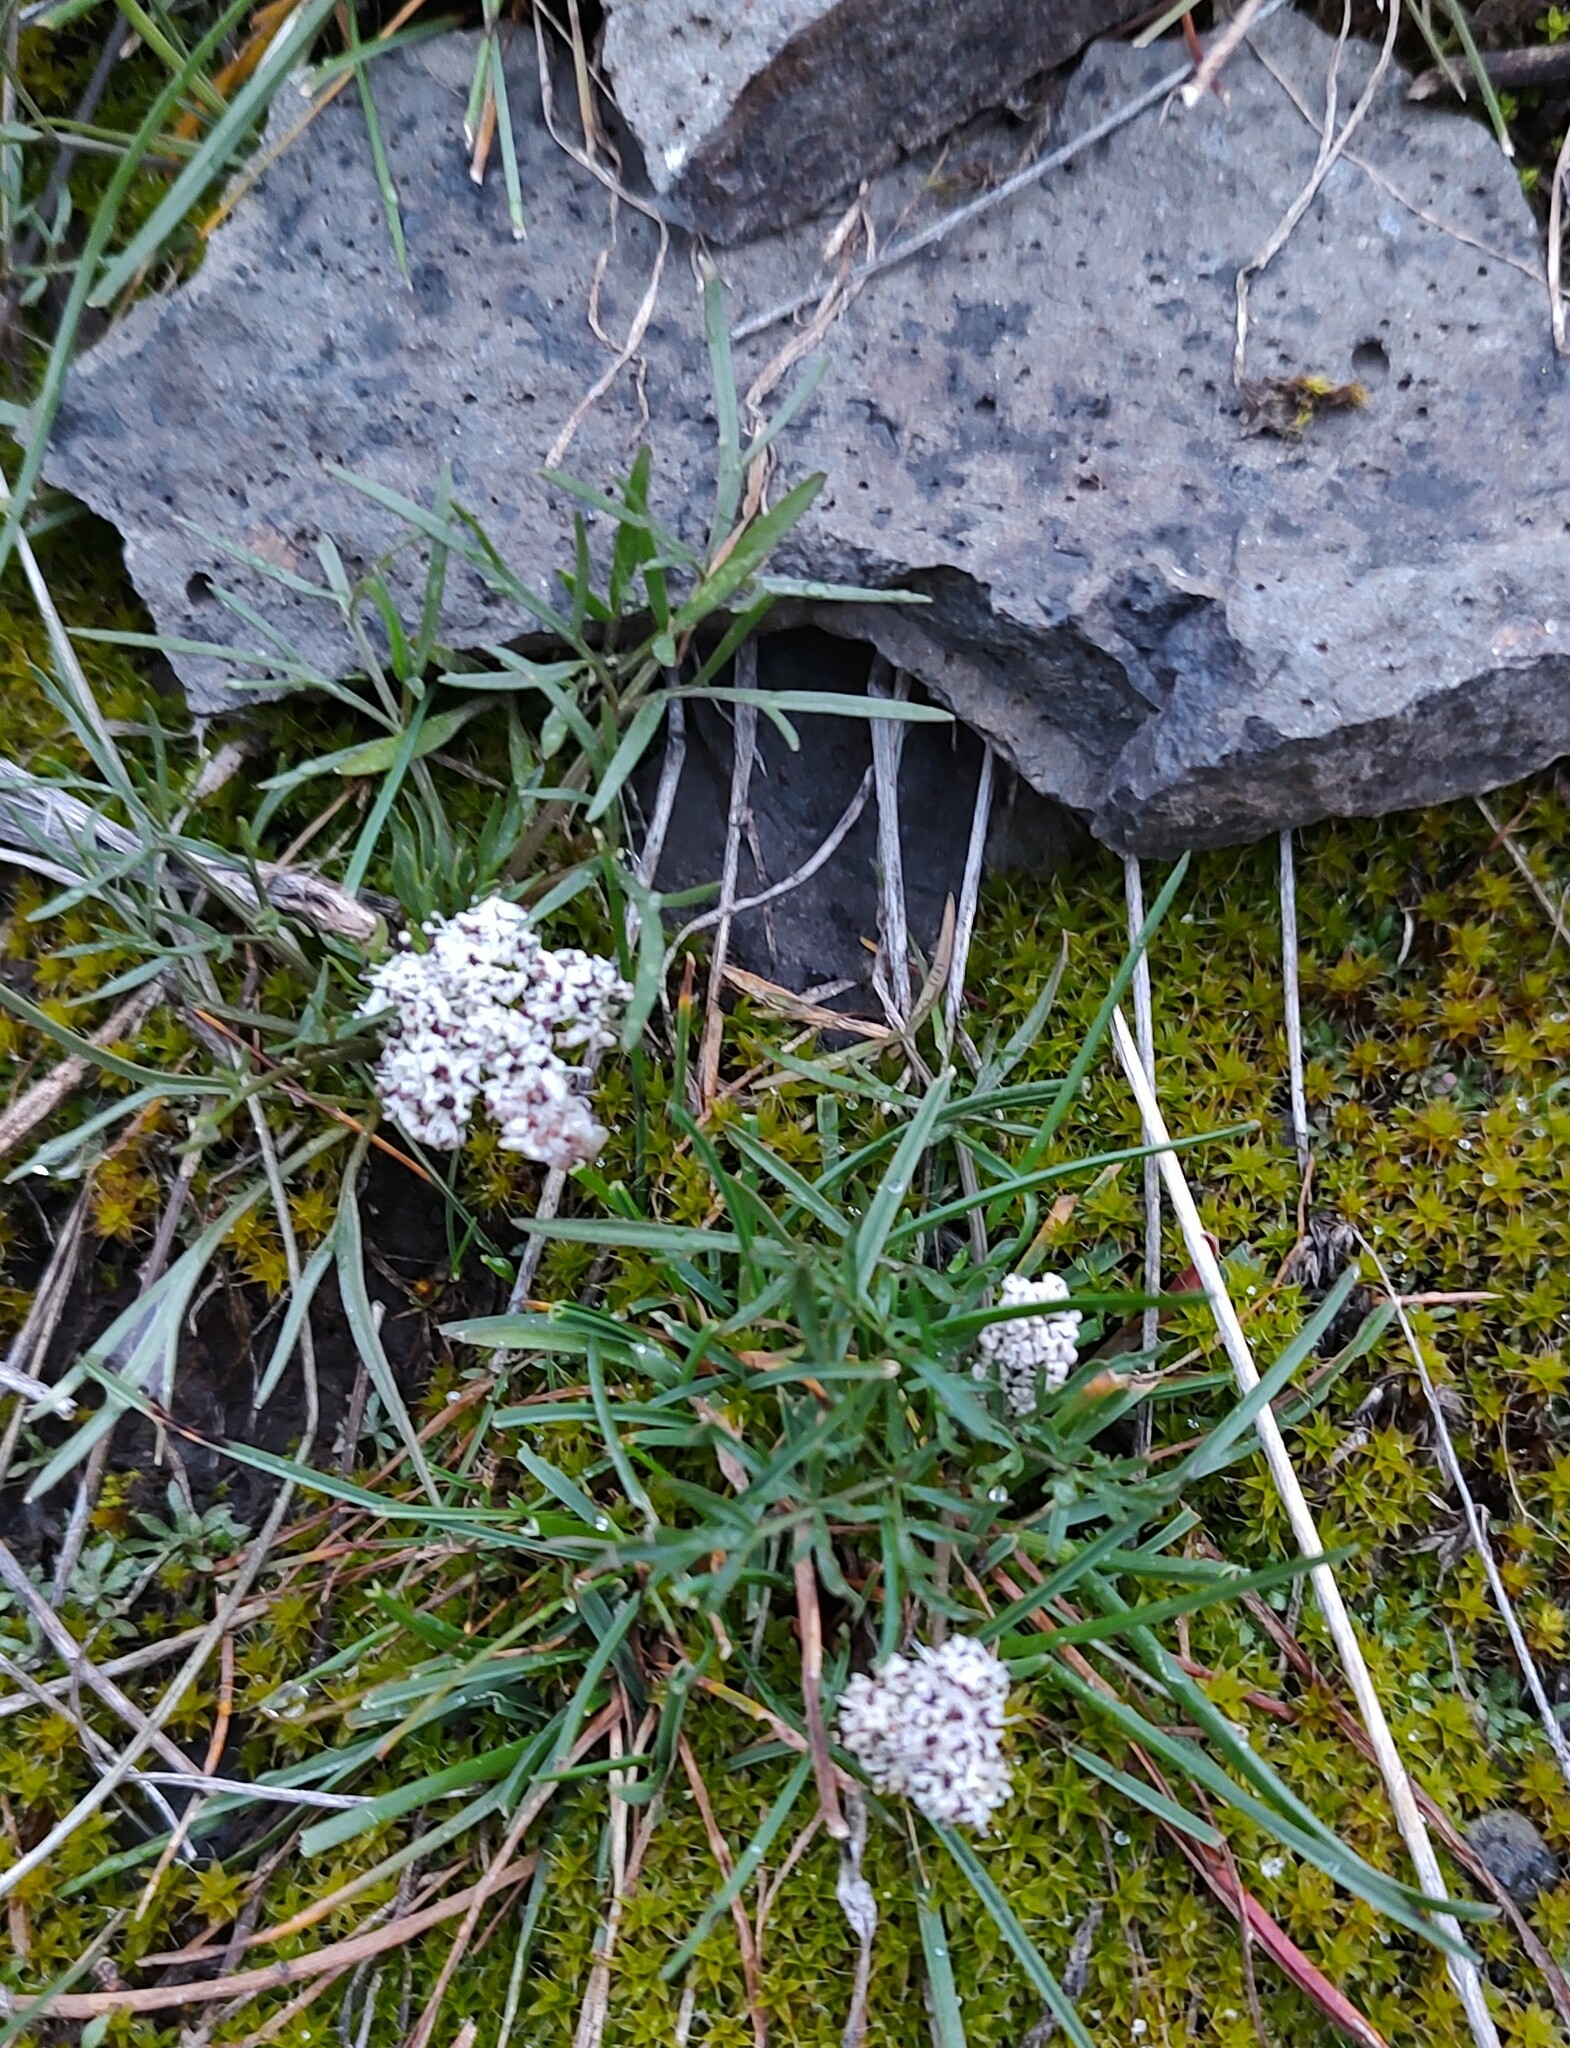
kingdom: Plantae
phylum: Tracheophyta
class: Magnoliopsida
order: Apiales
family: Apiaceae
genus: Lomatium
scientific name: Lomatium gormanii
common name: Gorman's biscuitroot
